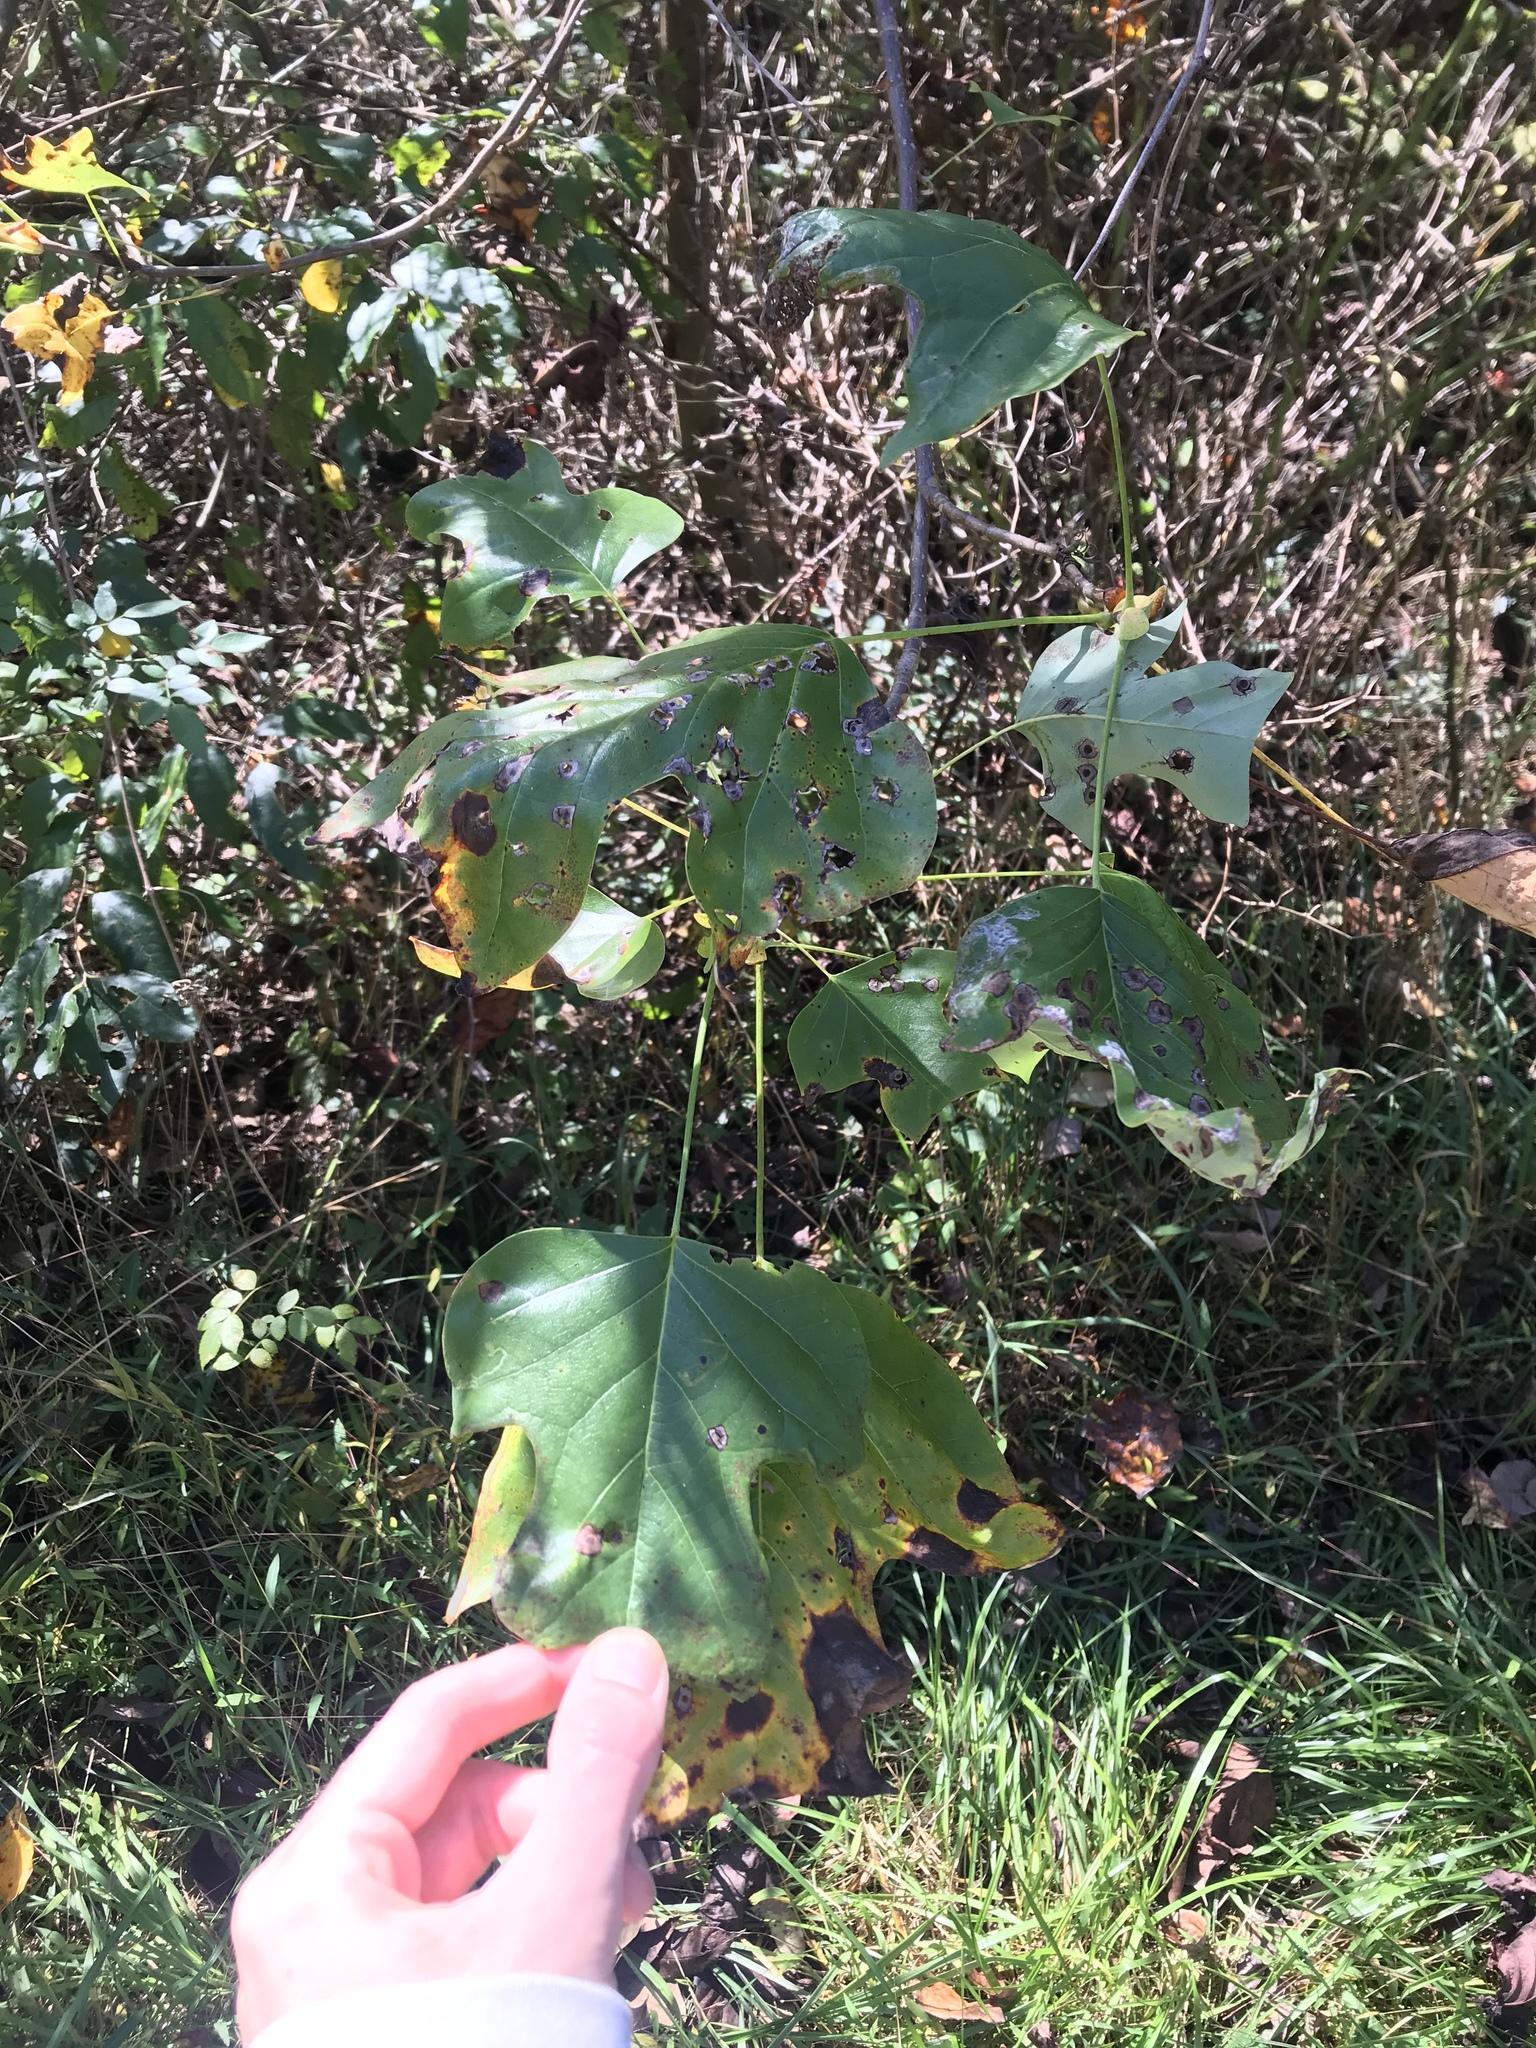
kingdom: Plantae
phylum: Tracheophyta
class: Magnoliopsida
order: Magnoliales
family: Magnoliaceae
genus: Liriodendron
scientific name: Liriodendron tulipifera
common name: Tulip tree
